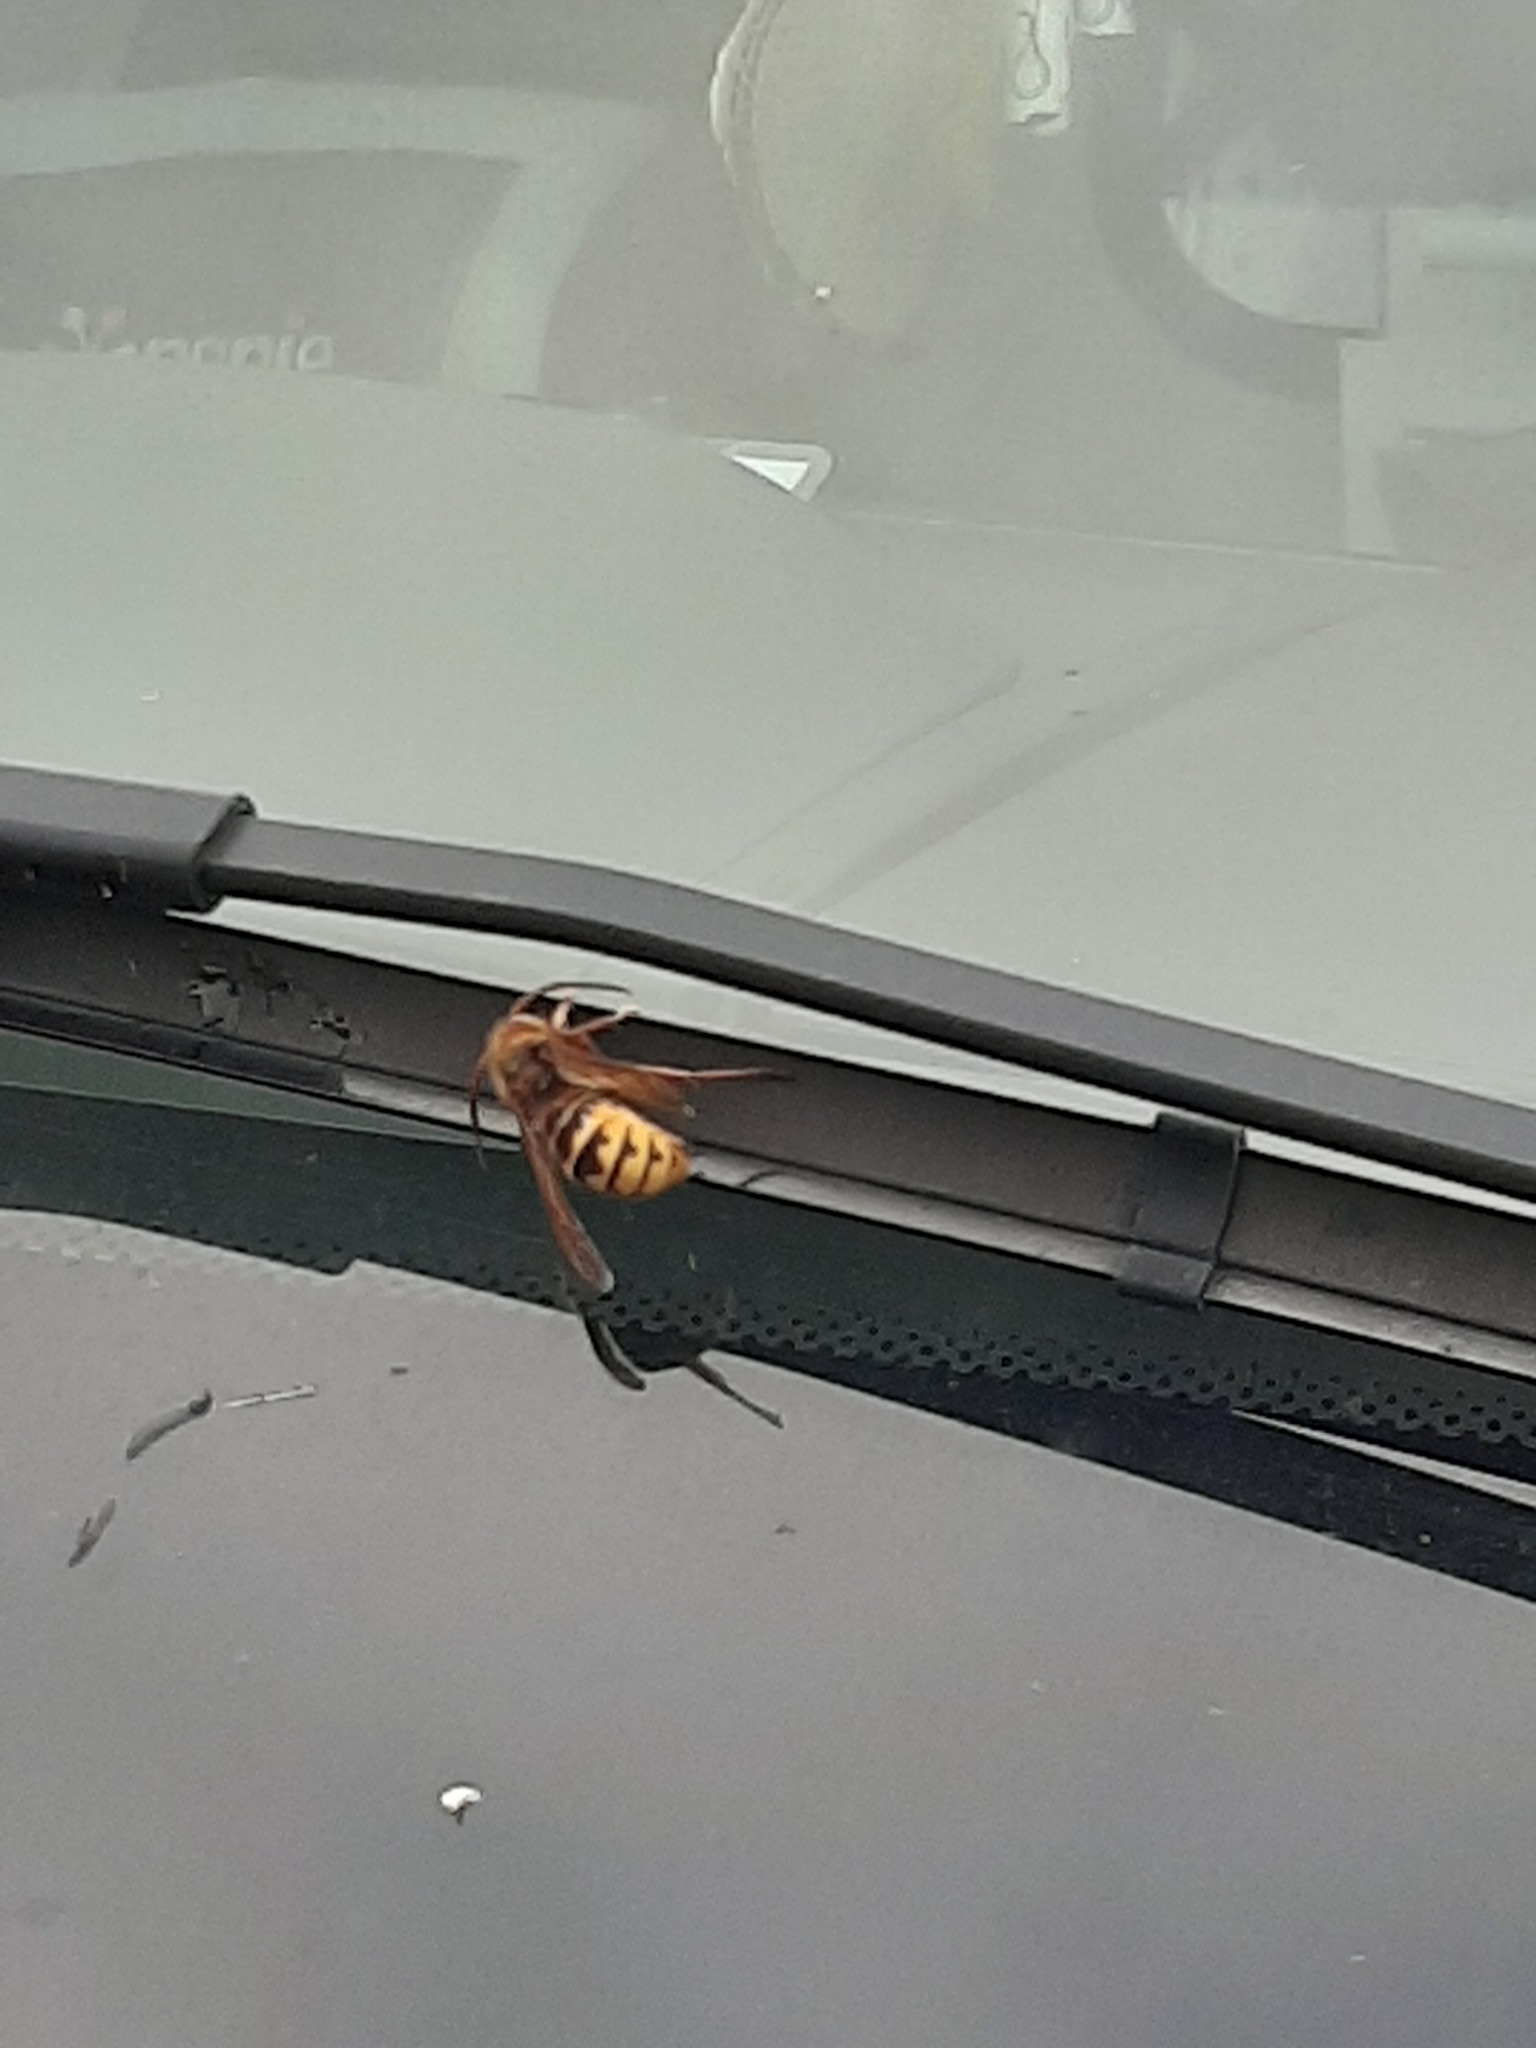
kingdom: Animalia
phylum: Arthropoda
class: Insecta
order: Hymenoptera
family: Vespidae
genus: Vespa
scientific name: Vespa crabro
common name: Hornet
